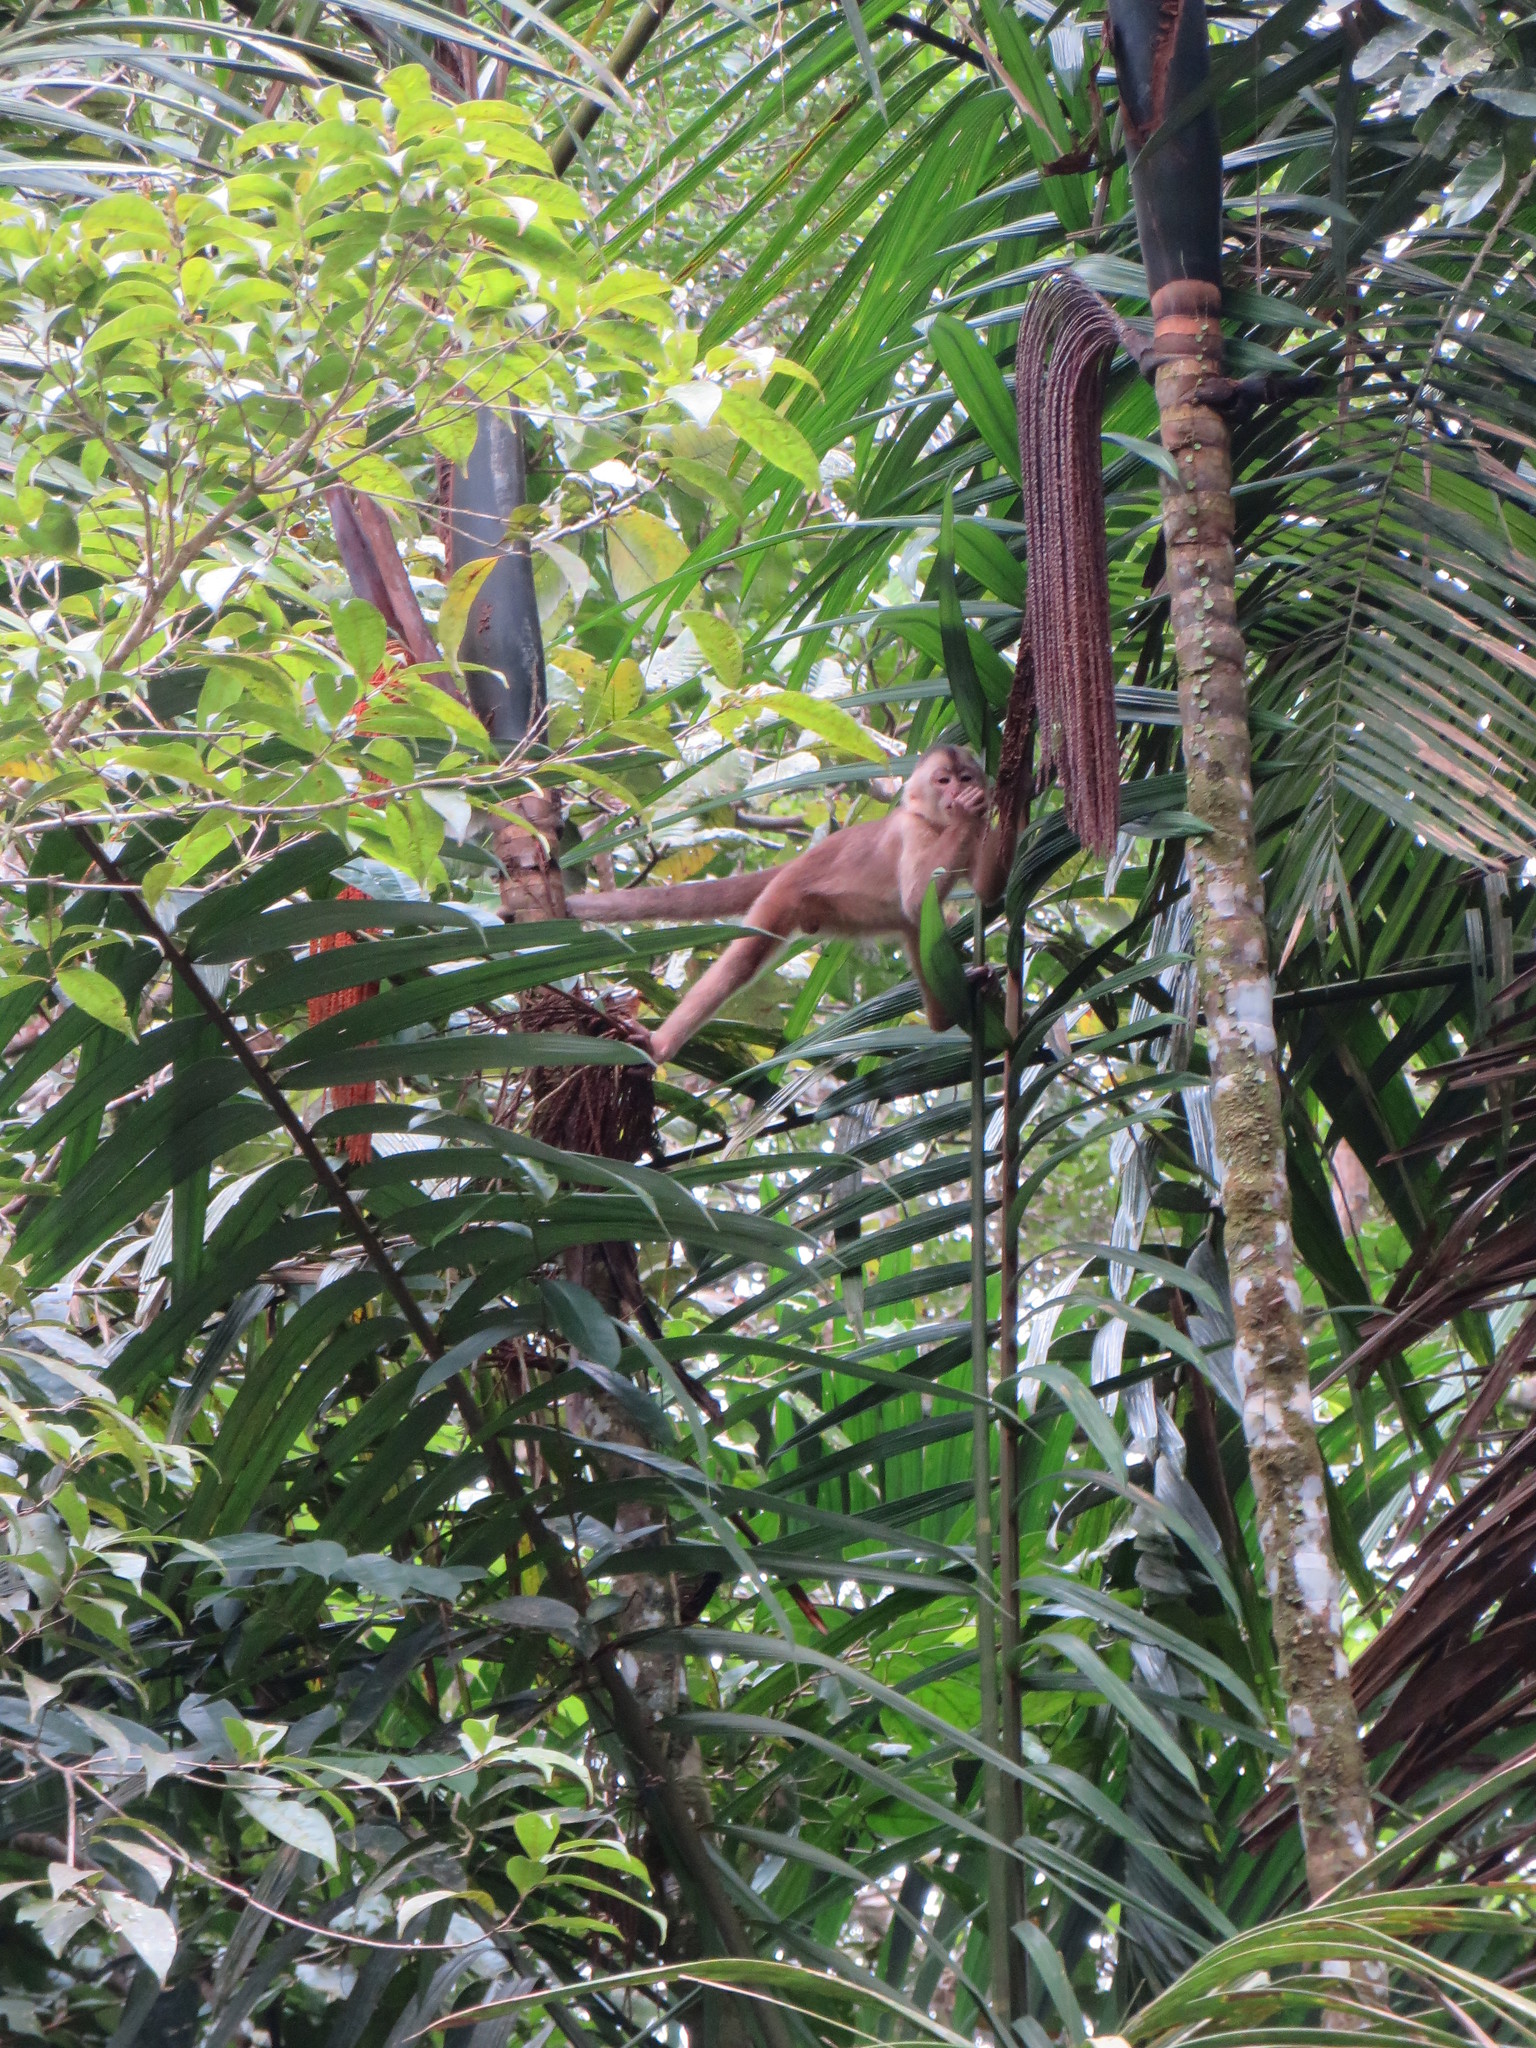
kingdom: Animalia
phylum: Chordata
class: Mammalia
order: Primates
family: Cebidae
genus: Cebus
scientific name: Cebus yuracus
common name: Peruvian white-fronted capuchin
